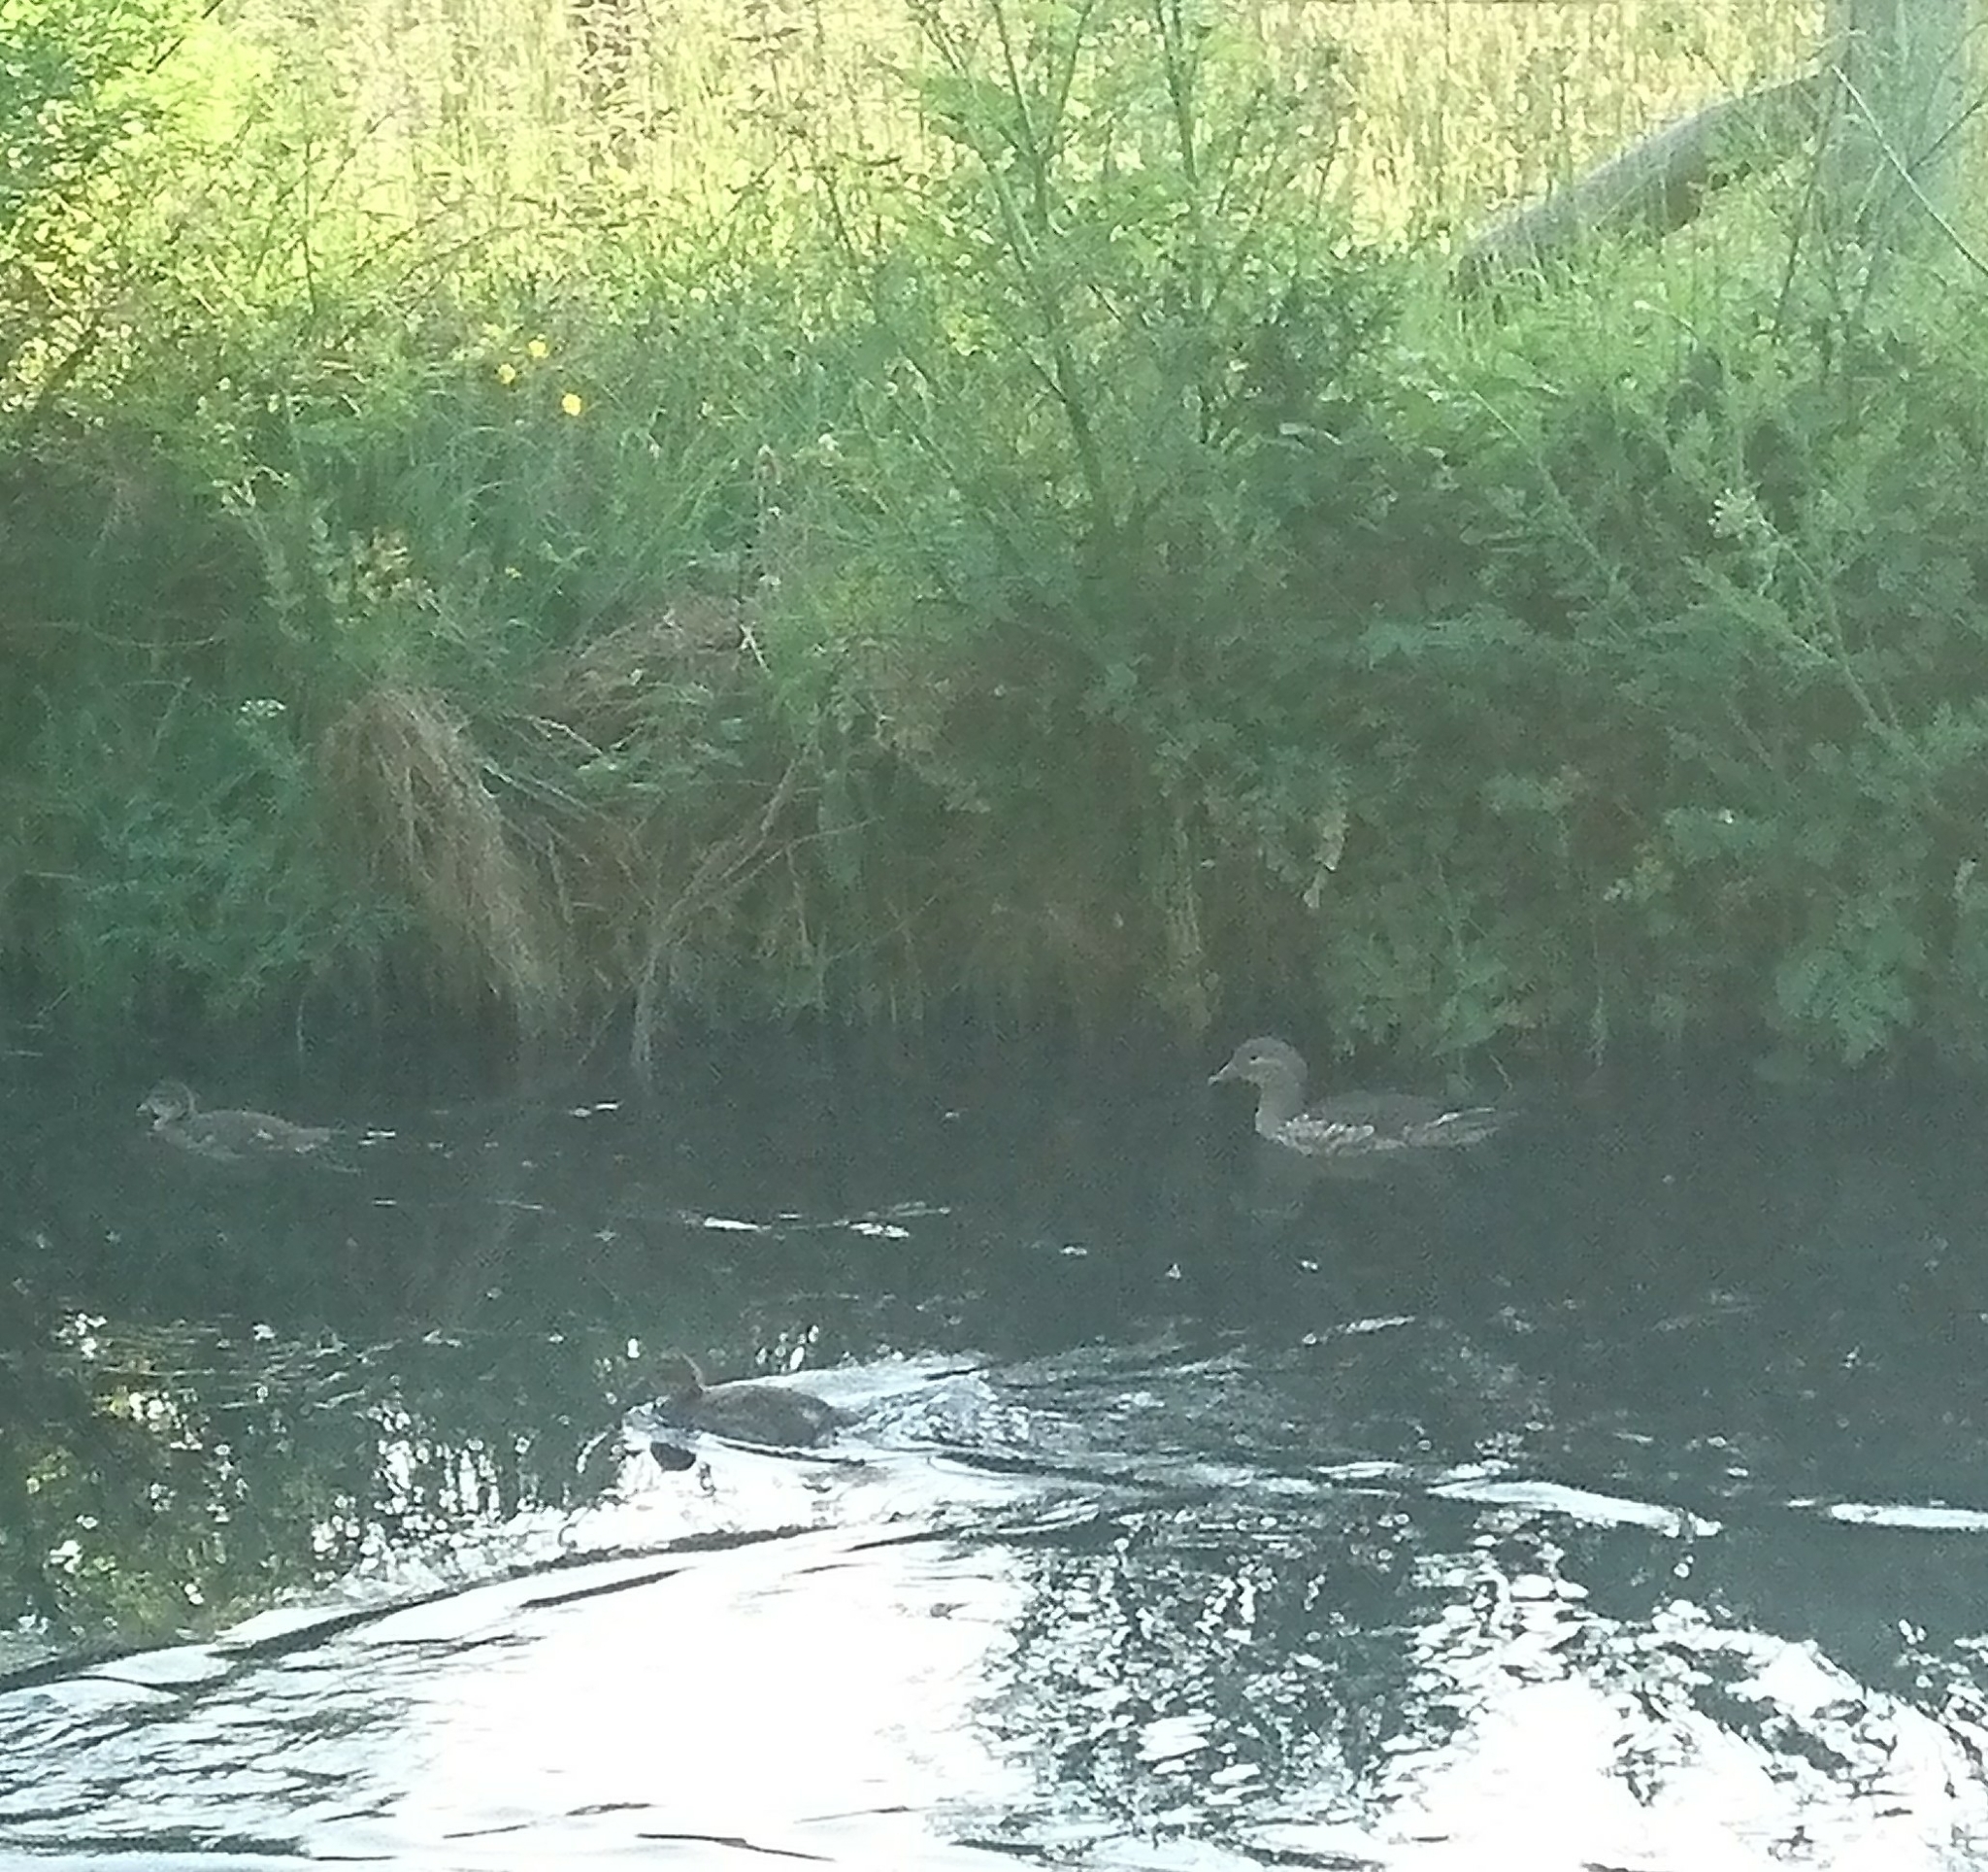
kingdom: Animalia
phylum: Chordata
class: Aves
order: Anseriformes
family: Anatidae
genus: Aix
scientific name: Aix galericulata
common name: Mandarin duck
